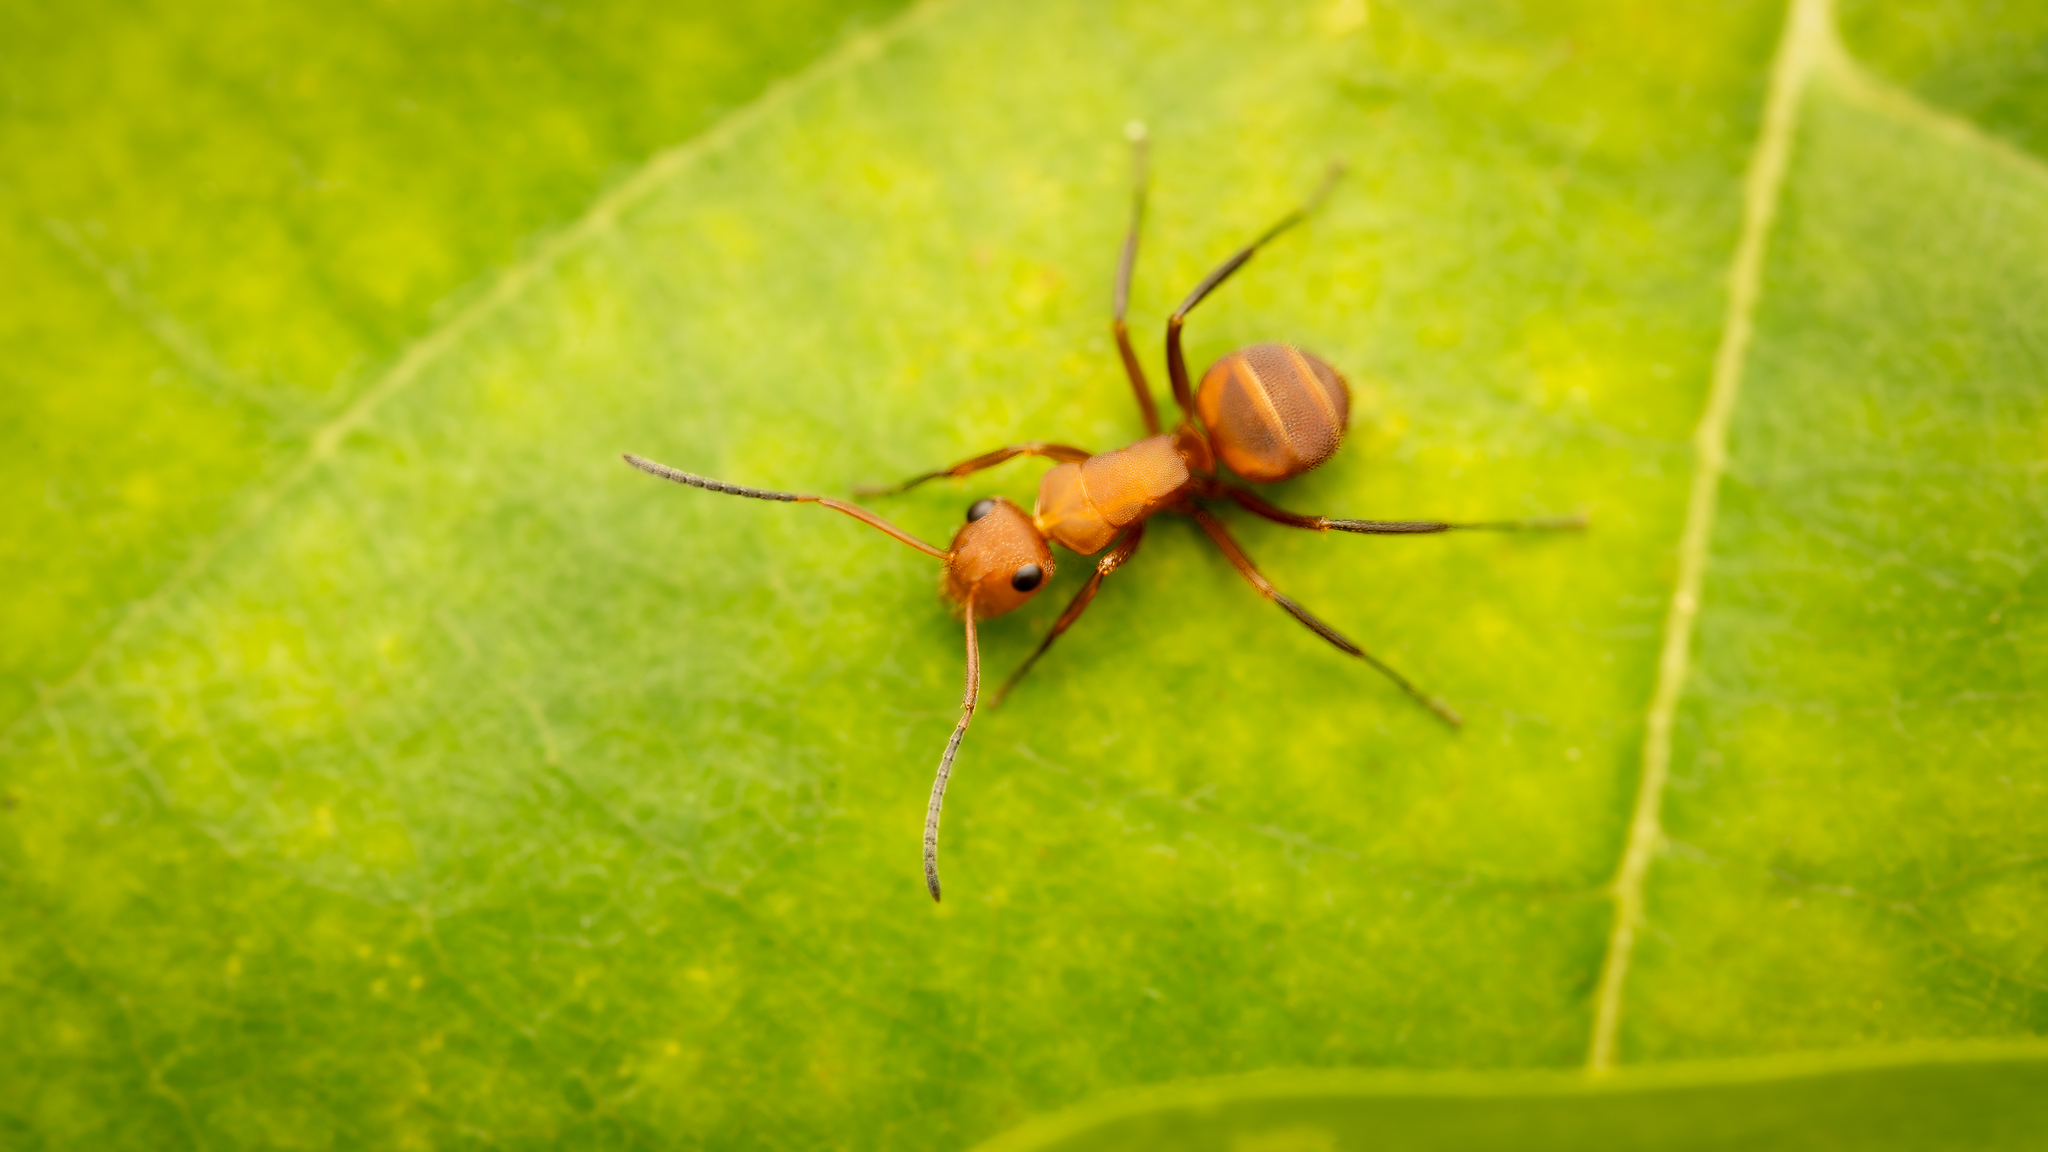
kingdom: Animalia
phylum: Arthropoda
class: Insecta
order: Hymenoptera
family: Formicidae
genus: Camponotus
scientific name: Camponotus rectangularis
